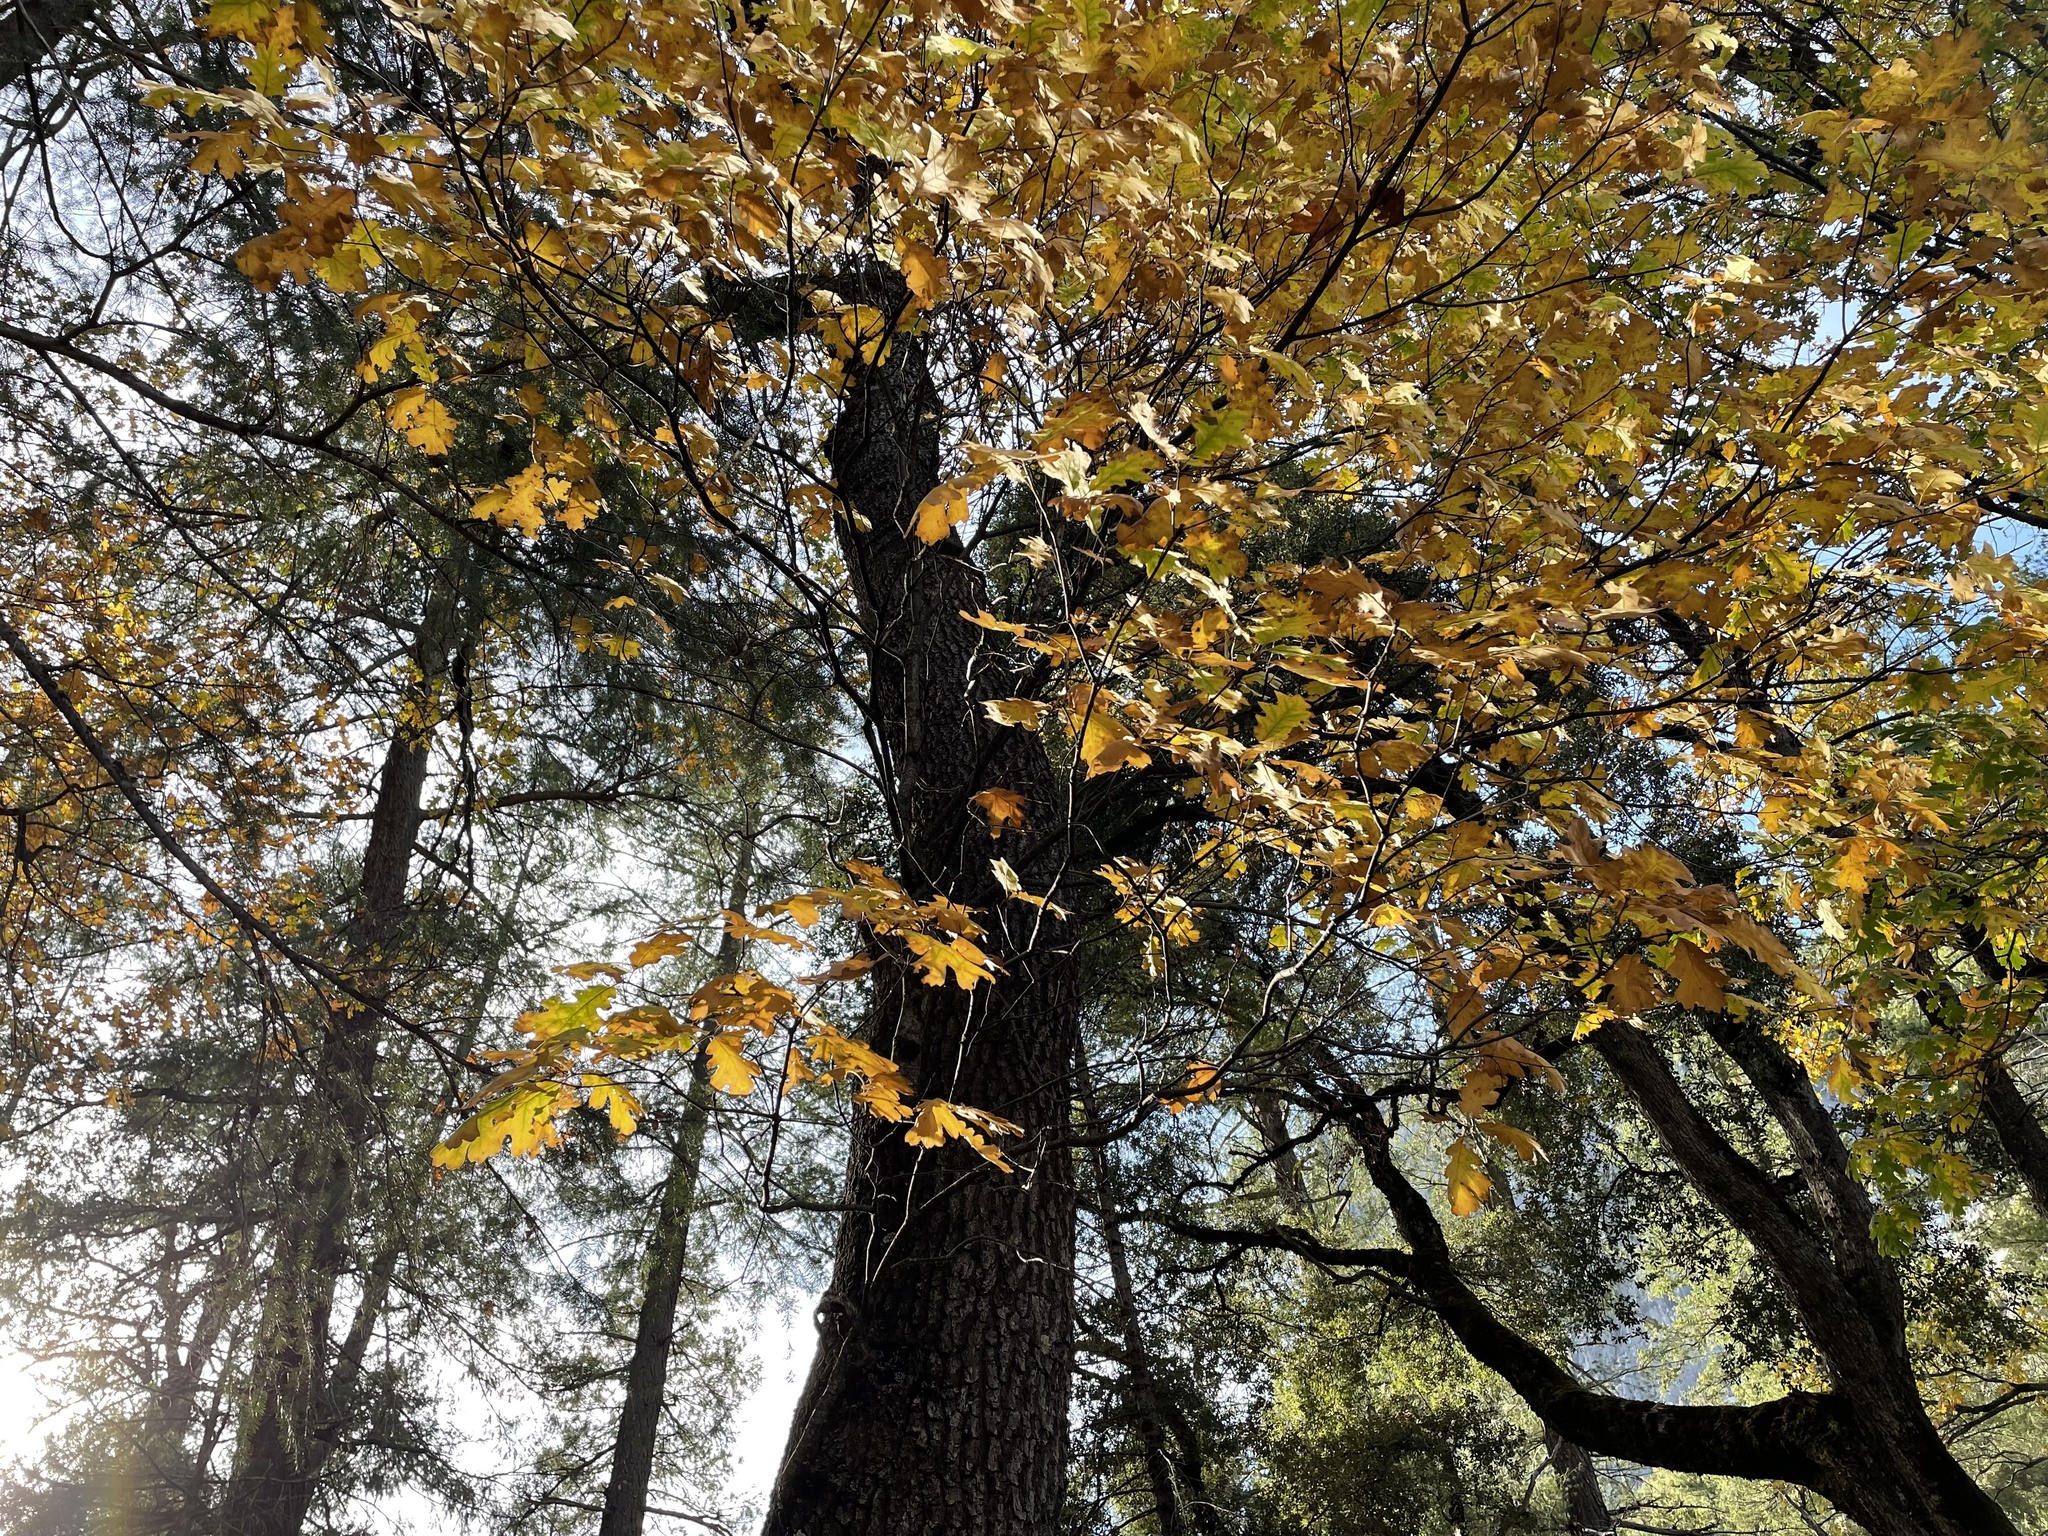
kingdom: Plantae
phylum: Tracheophyta
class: Magnoliopsida
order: Fagales
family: Fagaceae
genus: Quercus
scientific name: Quercus kelloggii
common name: California black oak
